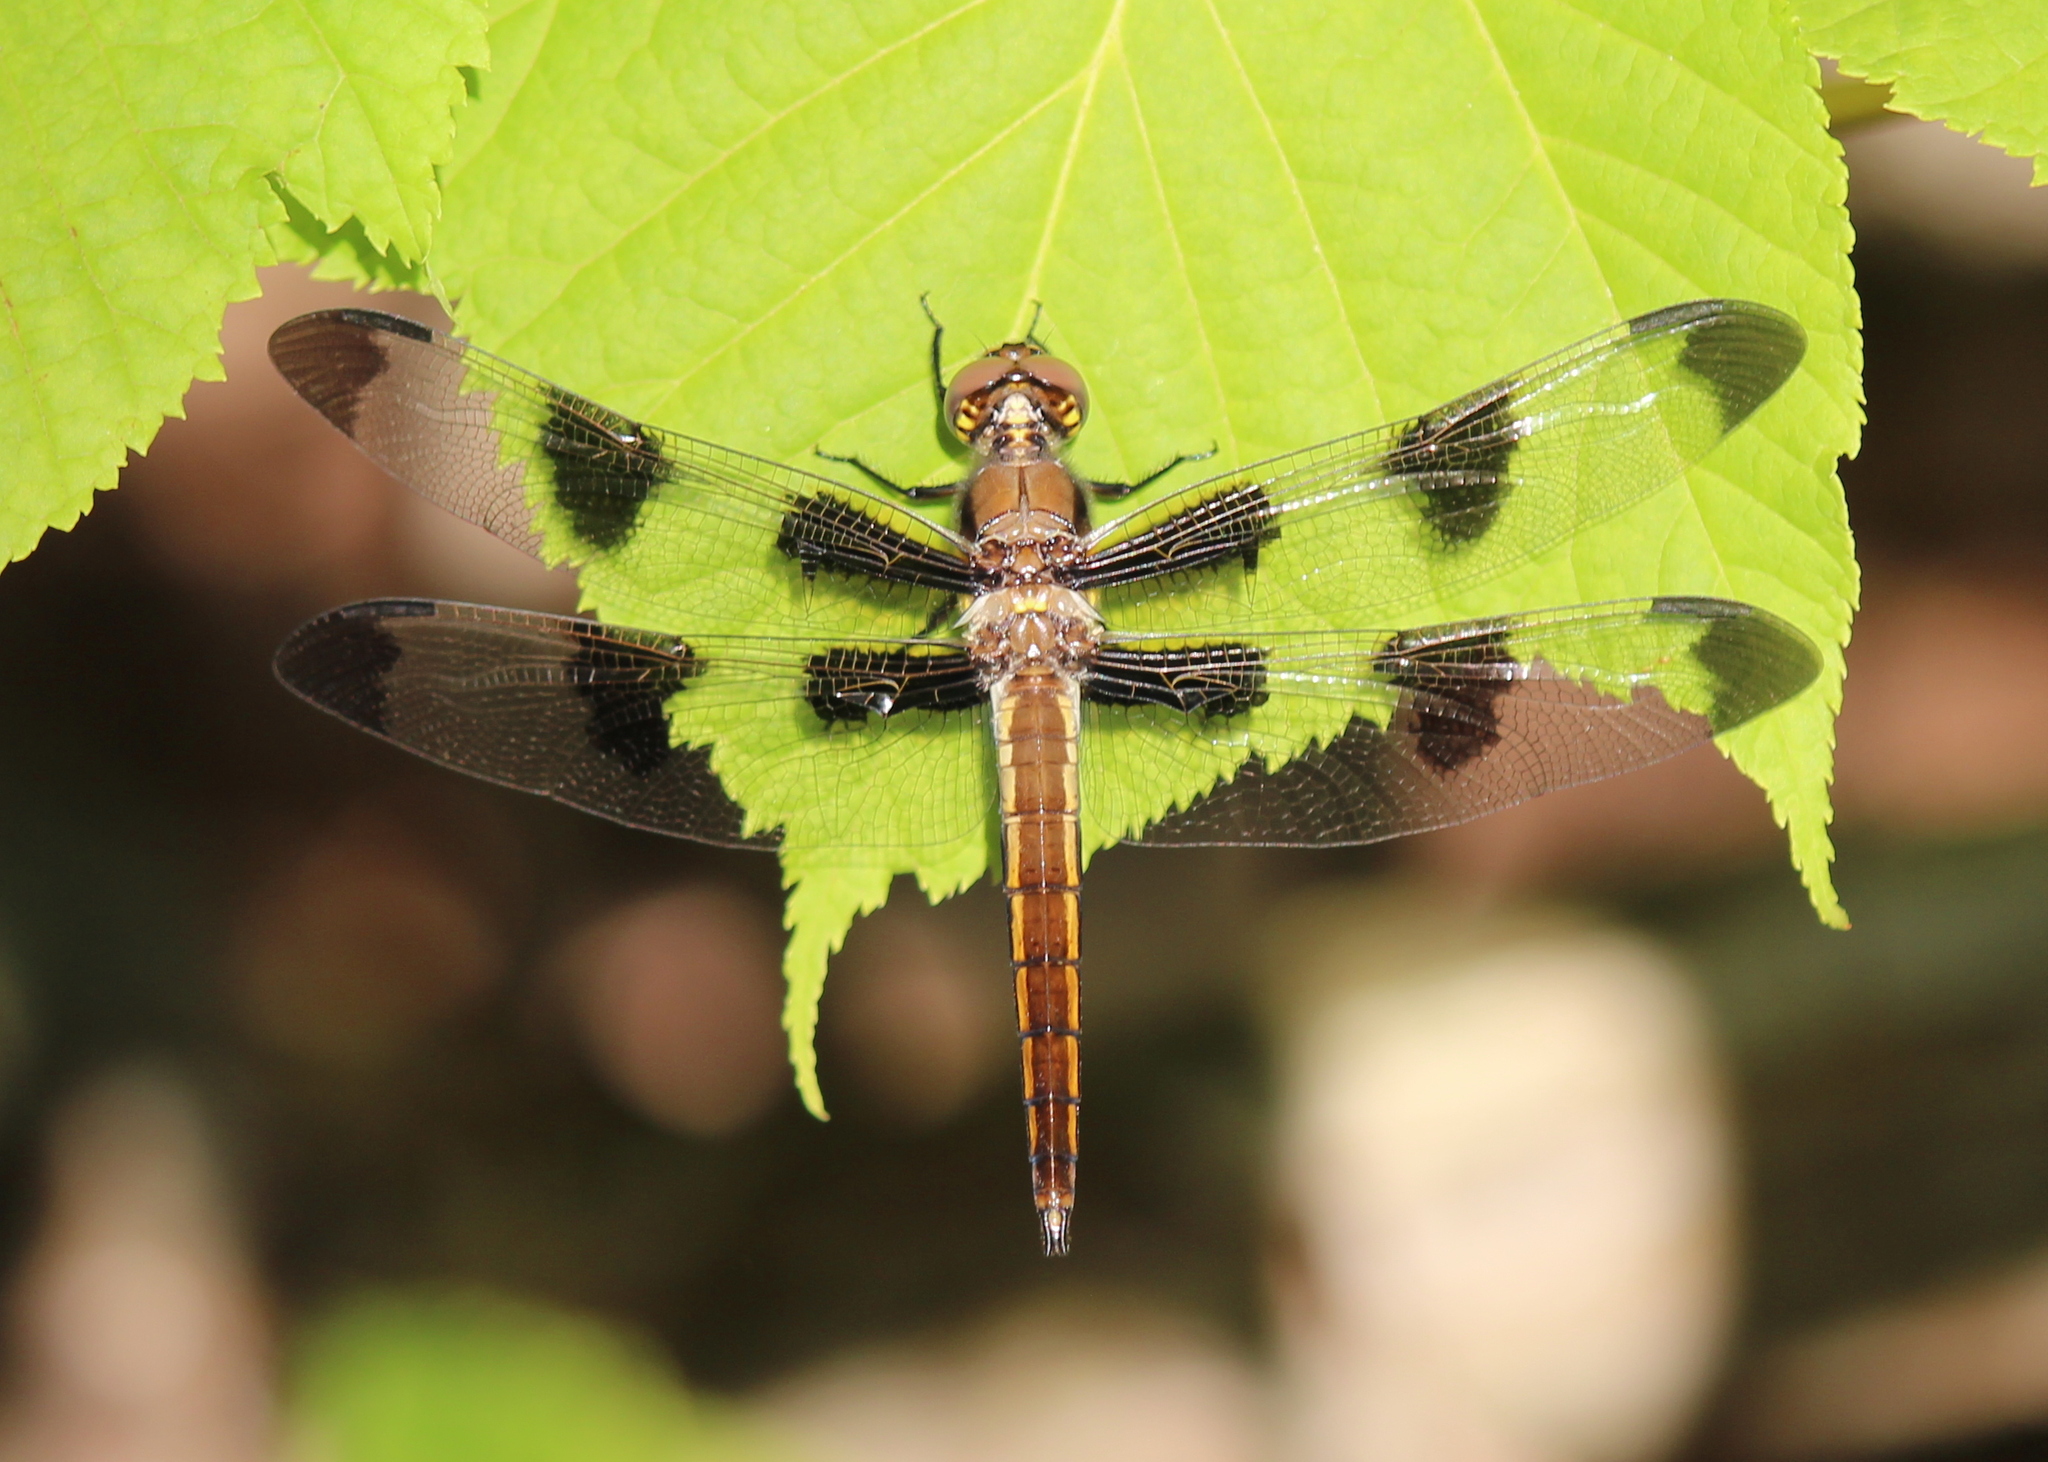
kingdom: Animalia
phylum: Arthropoda
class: Insecta
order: Odonata
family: Libellulidae
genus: Libellula
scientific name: Libellula pulchella
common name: Twelve-spotted skimmer
